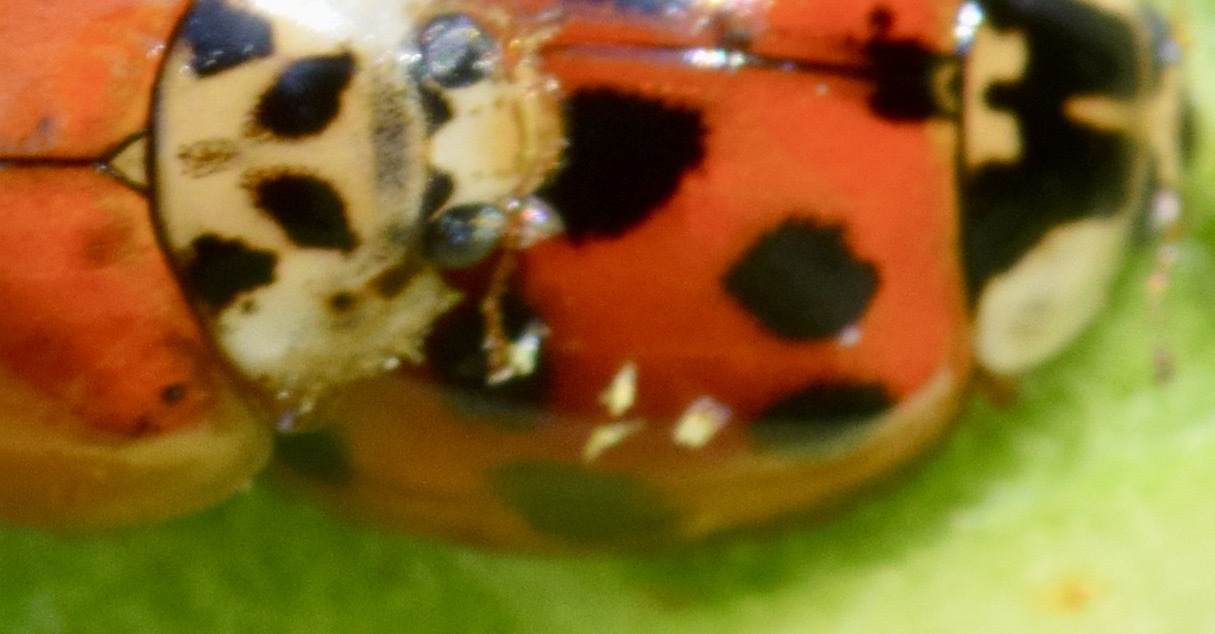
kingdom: Fungi
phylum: Ascomycota
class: Laboulbeniomycetes
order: Laboulbeniales
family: Laboulbeniaceae
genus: Hesperomyces
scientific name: Hesperomyces harmoniae
